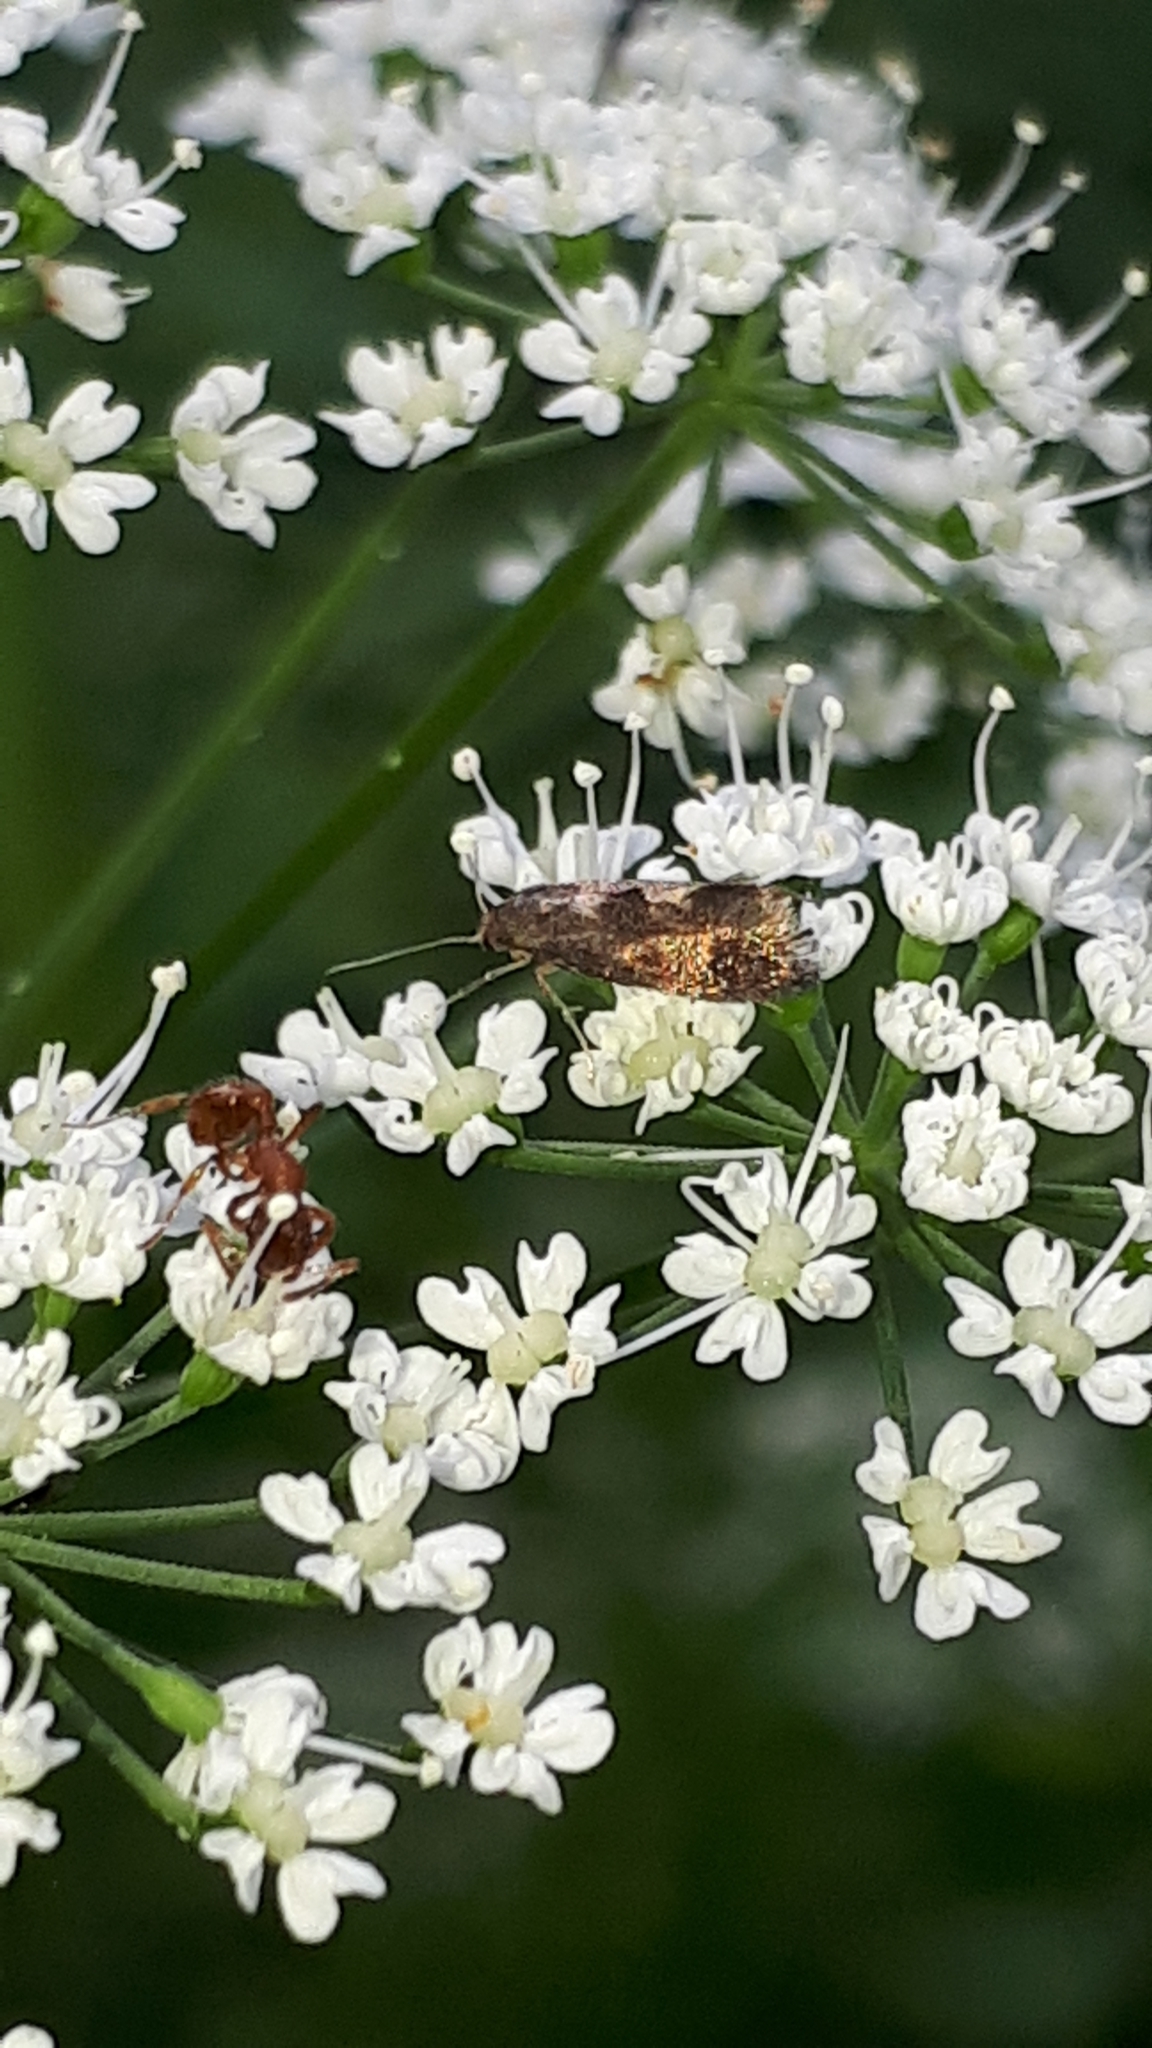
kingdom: Animalia
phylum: Arthropoda
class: Insecta
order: Lepidoptera
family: Epermeniidae
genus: Phaulernis
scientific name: Phaulernis dentella
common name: Scale-tooth lance-wing
